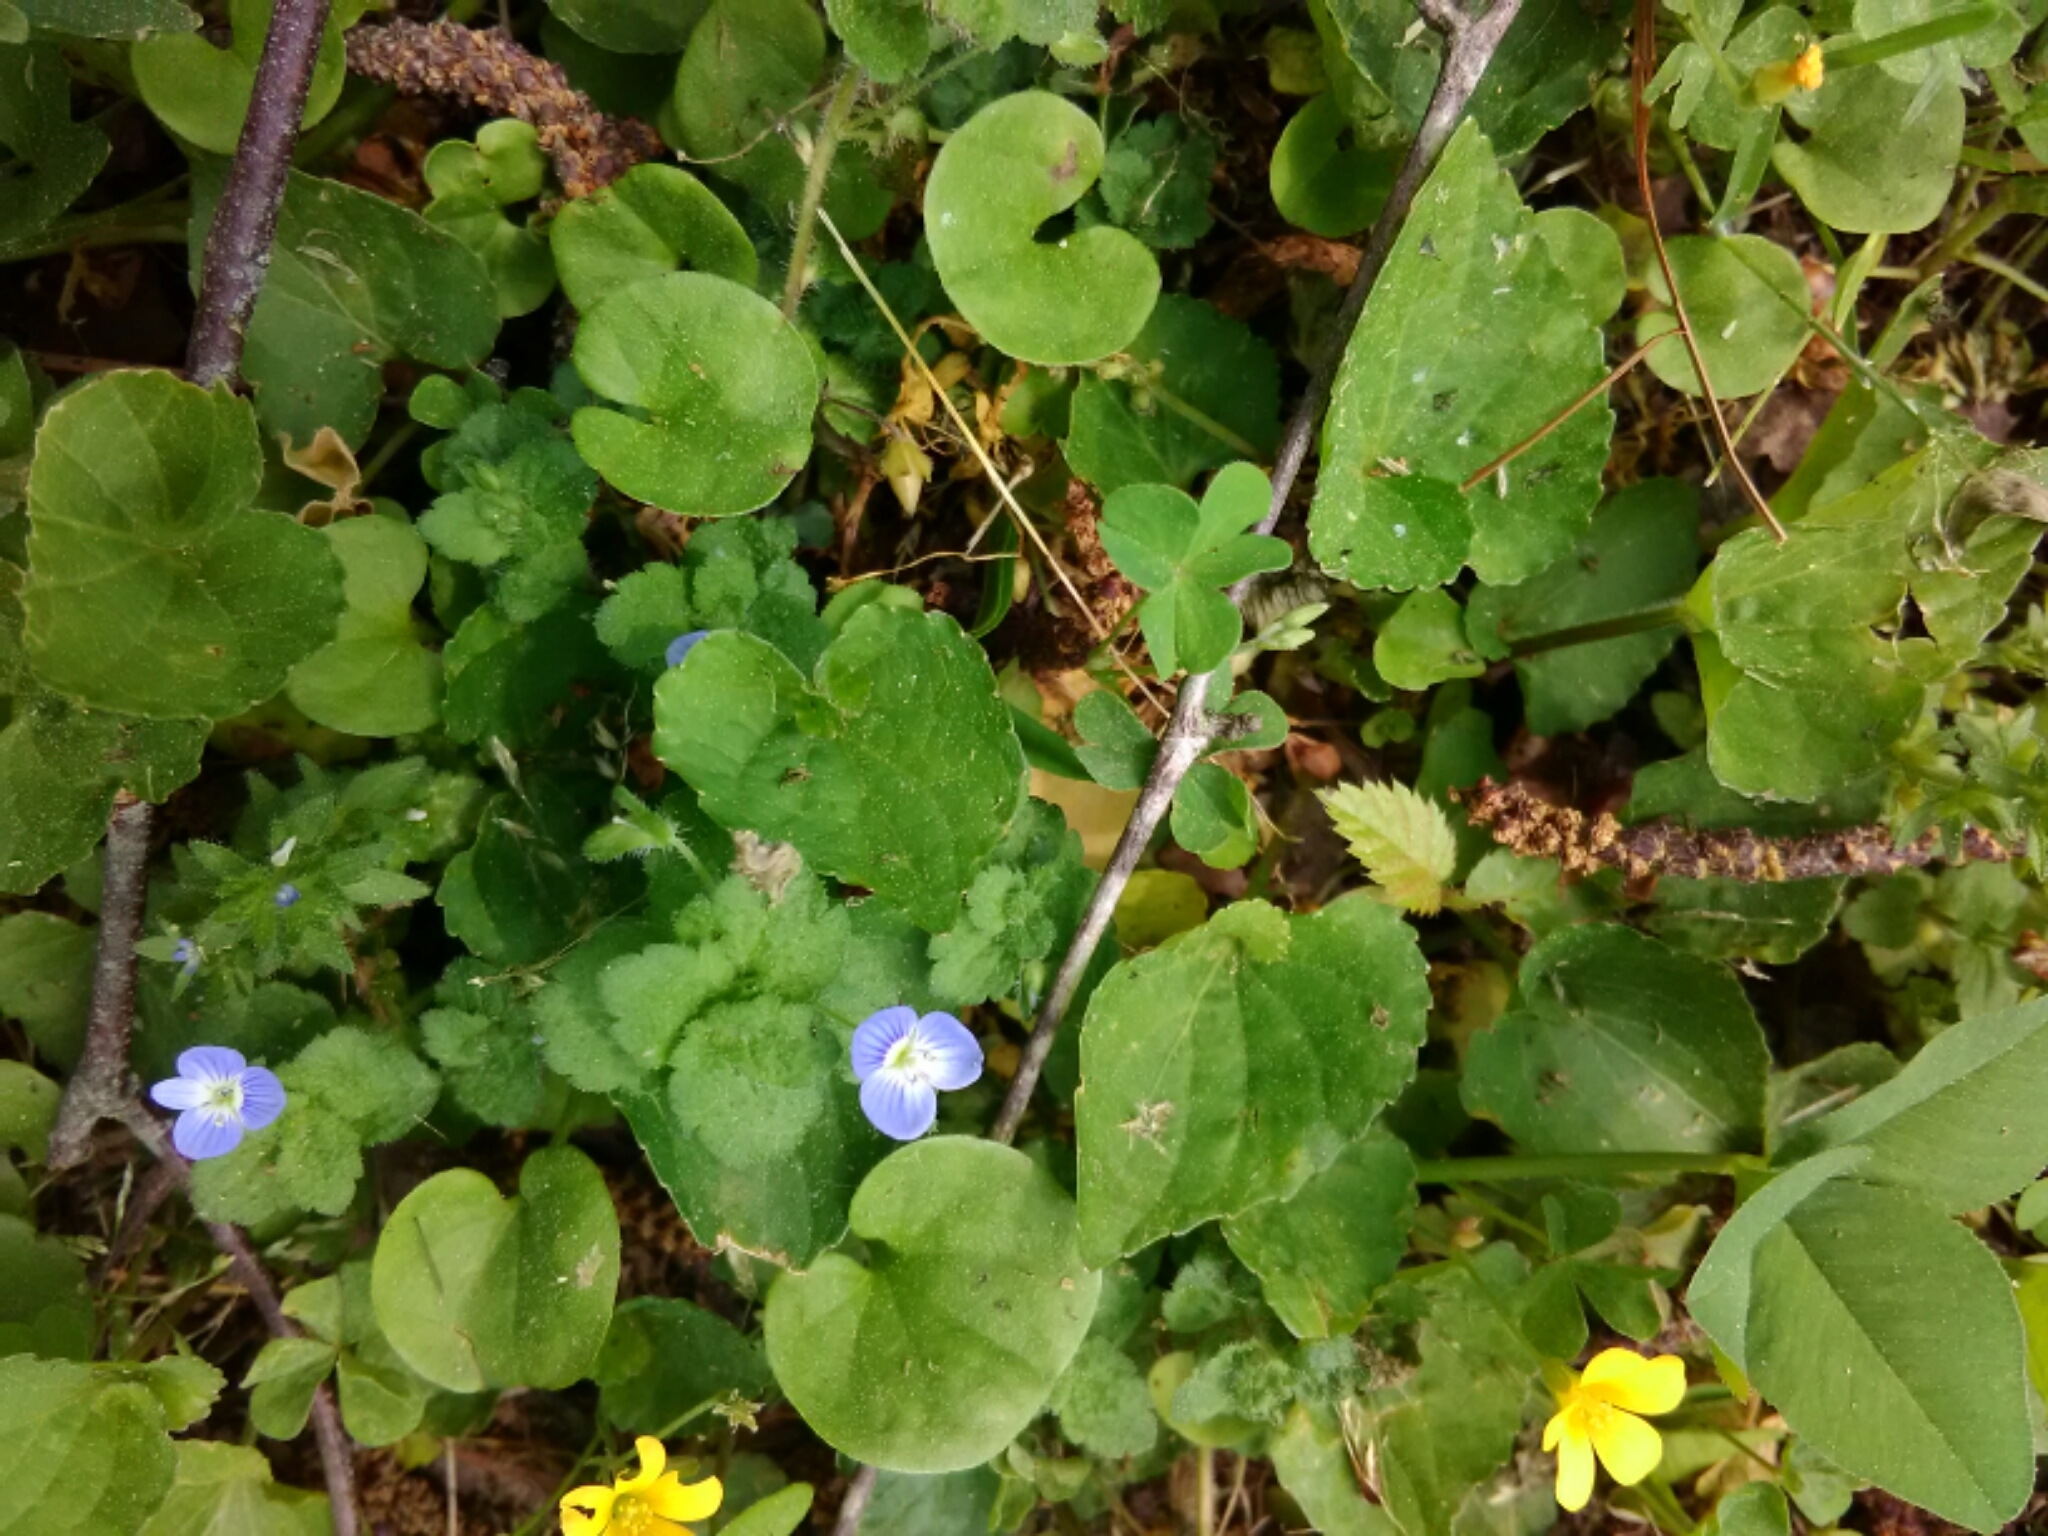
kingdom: Plantae
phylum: Tracheophyta
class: Magnoliopsida
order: Lamiales
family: Plantaginaceae
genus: Veronica
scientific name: Veronica persica
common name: Common field-speedwell
